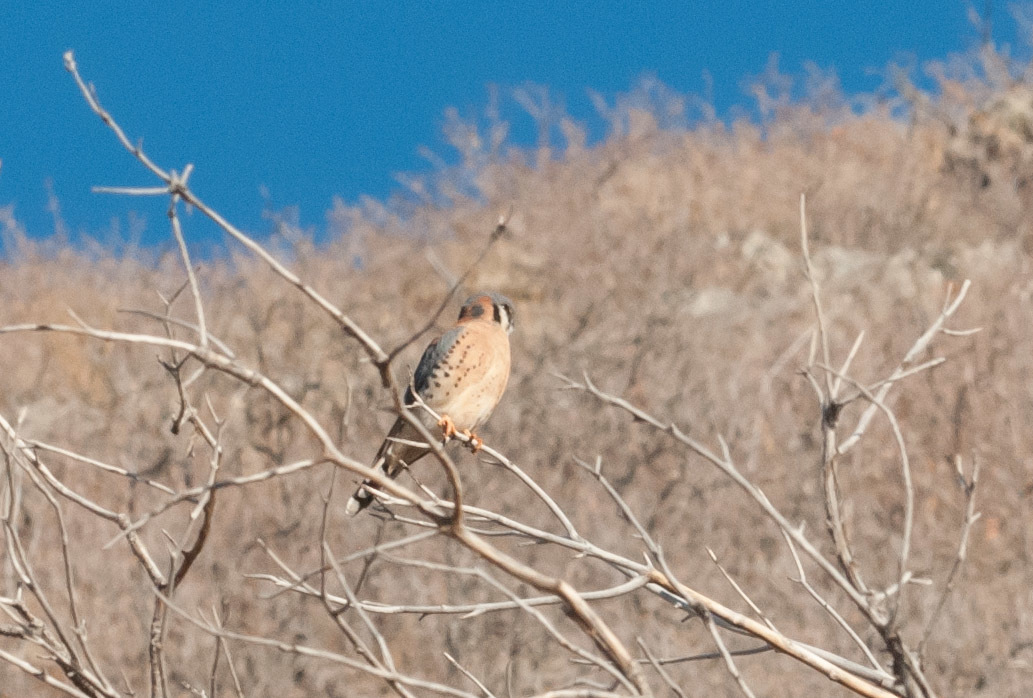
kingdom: Animalia
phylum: Chordata
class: Aves
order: Falconiformes
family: Falconidae
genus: Falco
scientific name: Falco sparverius
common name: American kestrel
